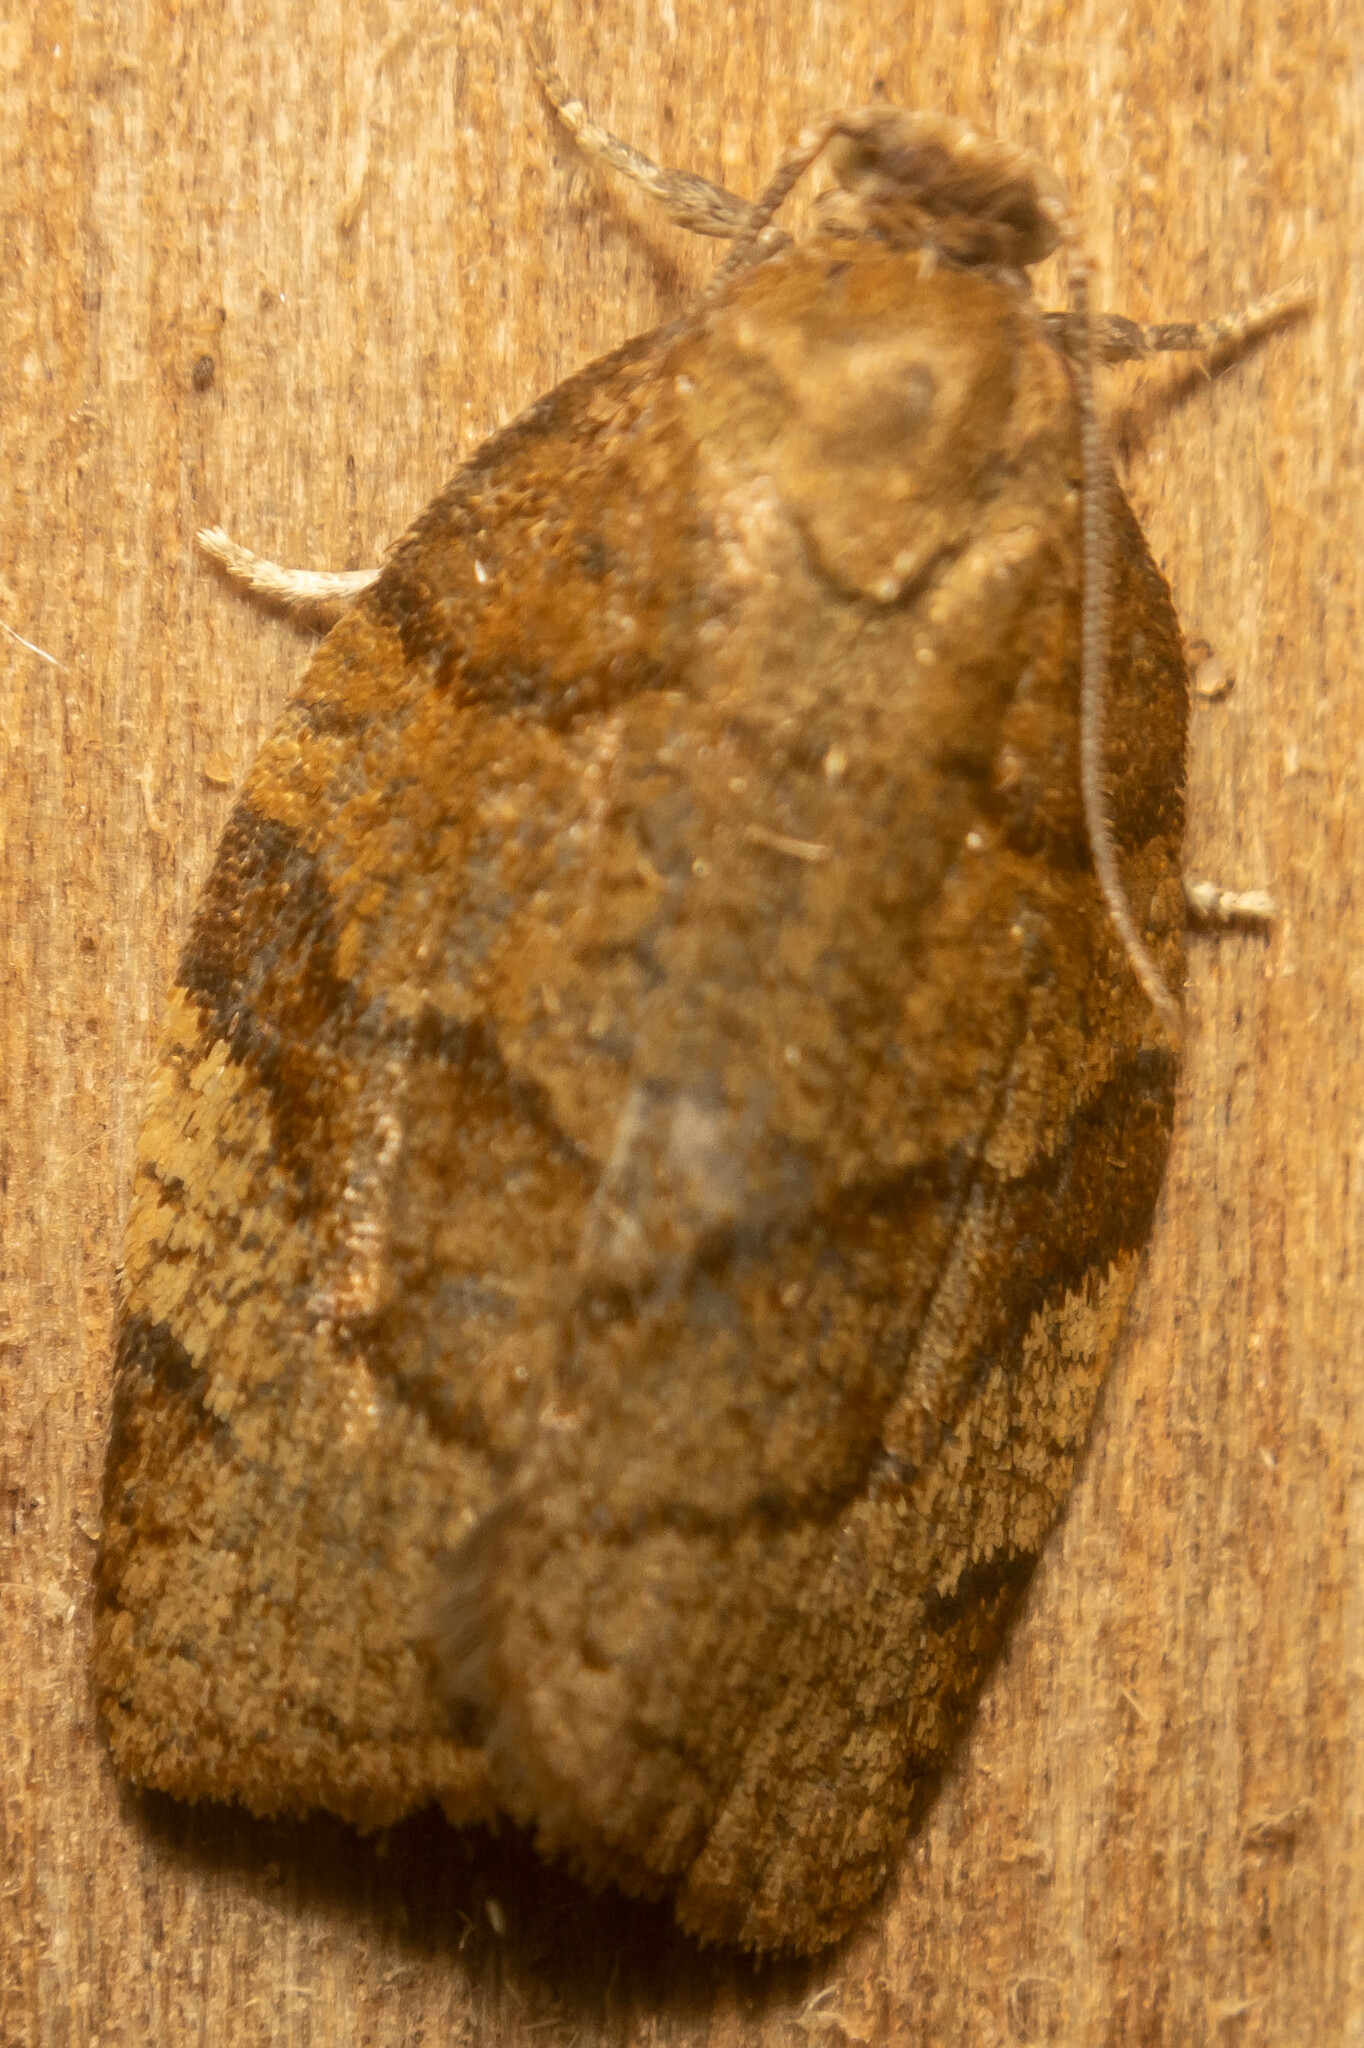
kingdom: Animalia
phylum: Arthropoda
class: Insecta
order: Lepidoptera
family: Tortricidae
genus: Pandemis
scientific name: Pandemis cerasana
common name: Barred fruit-tree tortrix
